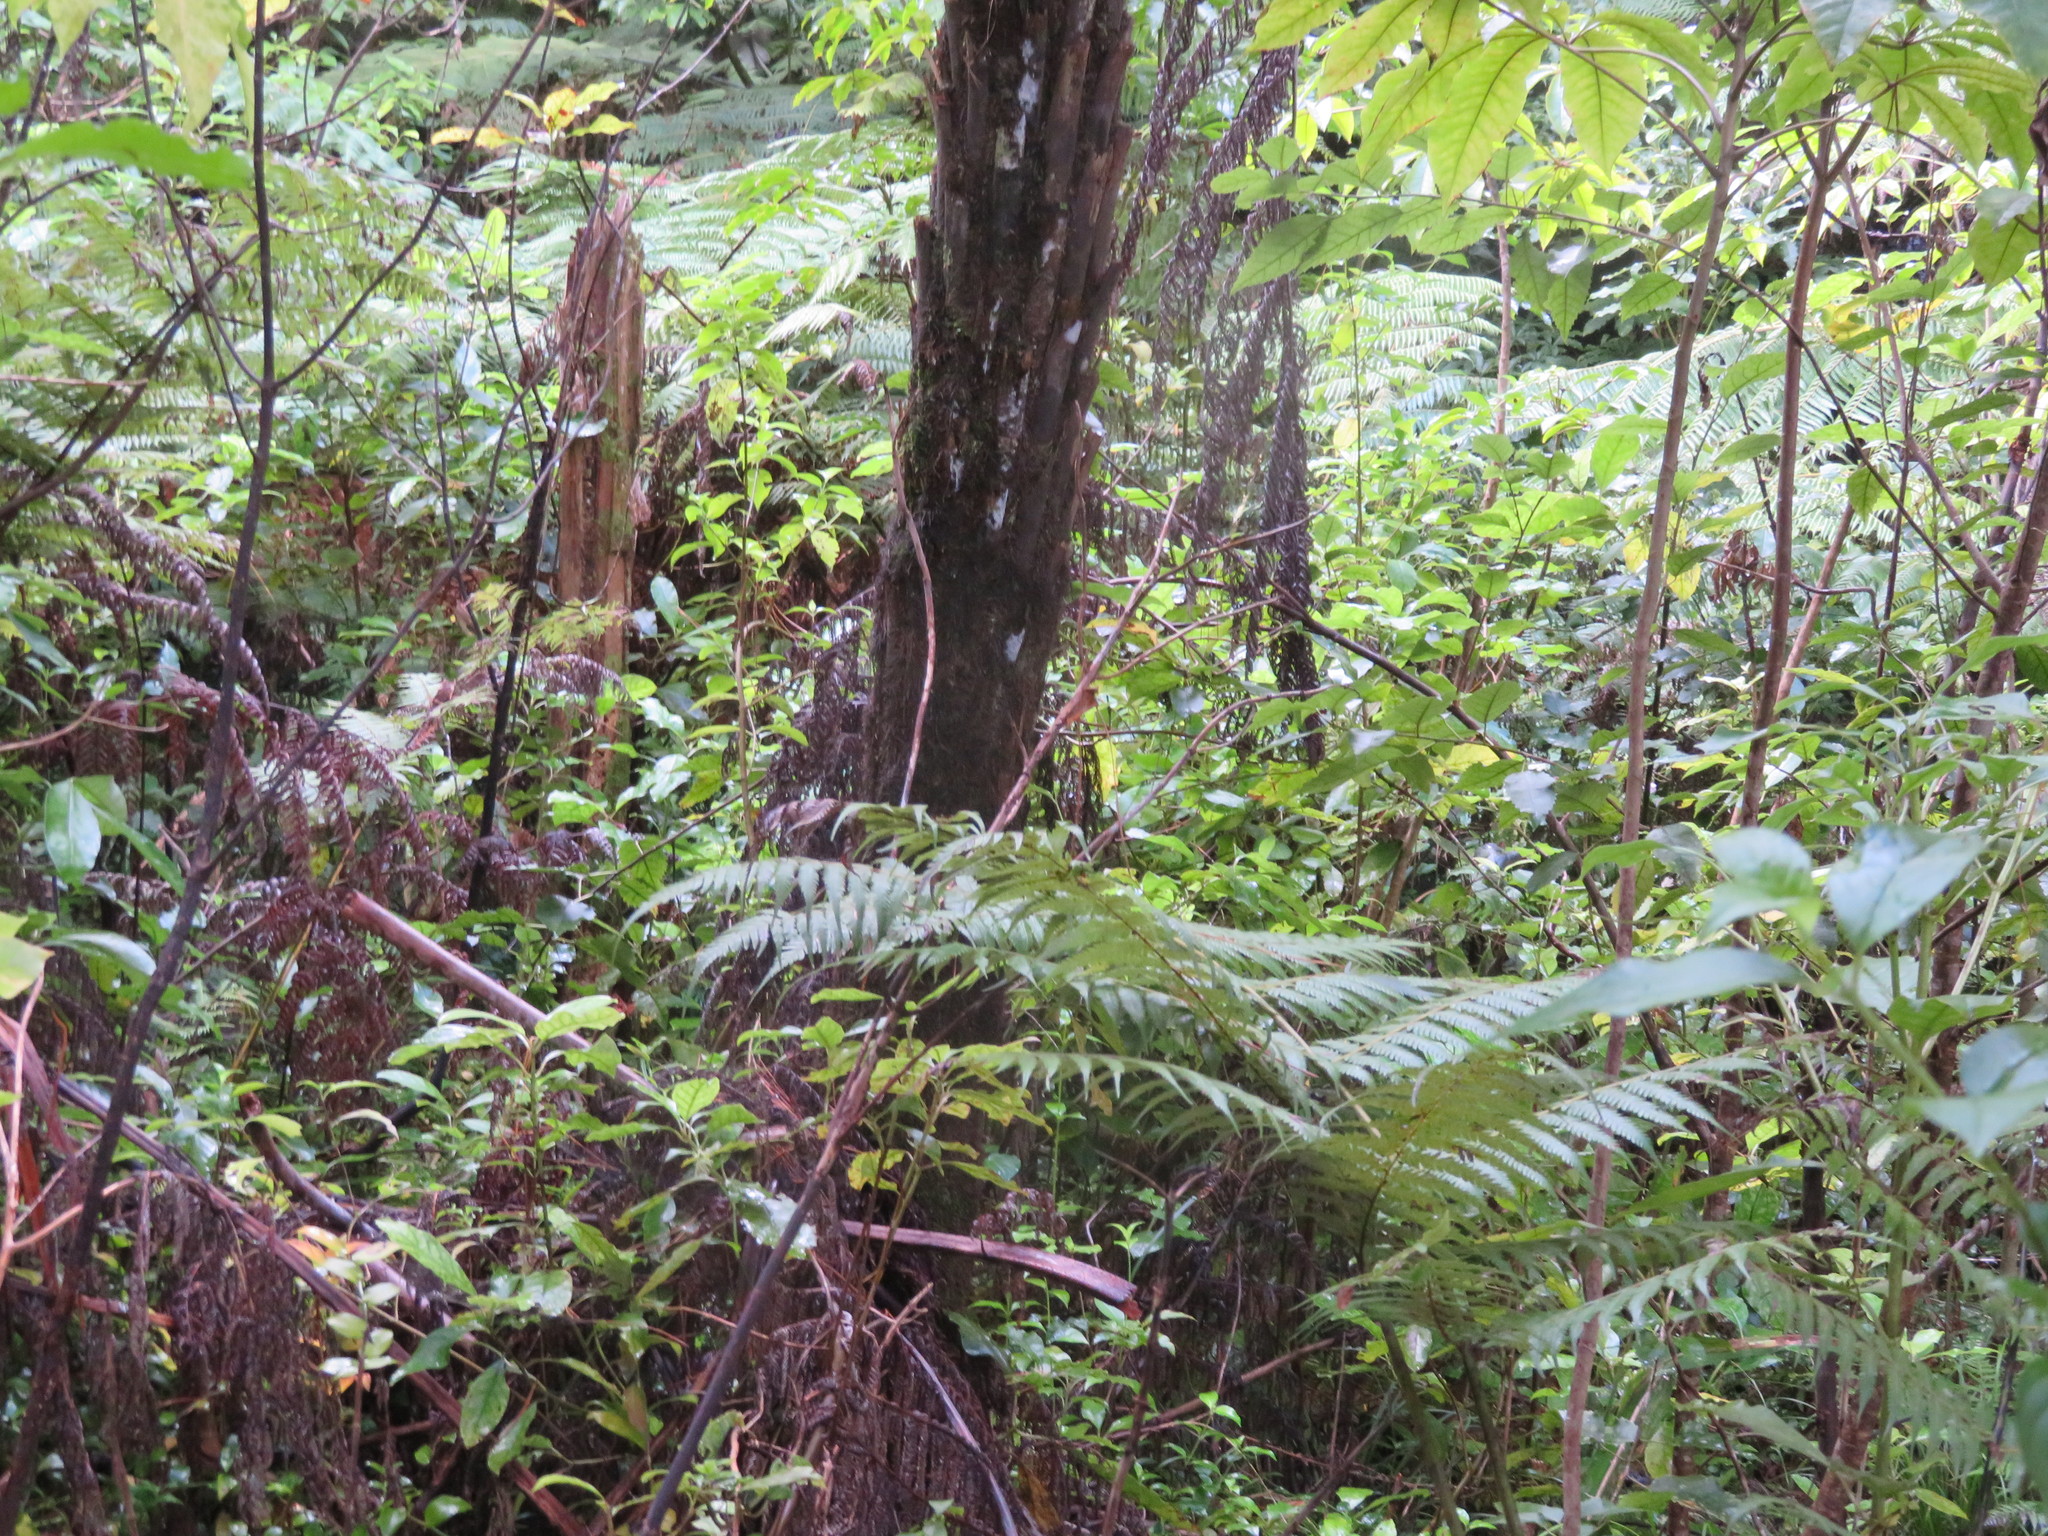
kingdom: Plantae
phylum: Tracheophyta
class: Polypodiopsida
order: Cyatheales
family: Cyatheaceae
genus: Alsophila
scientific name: Alsophila dealbata
